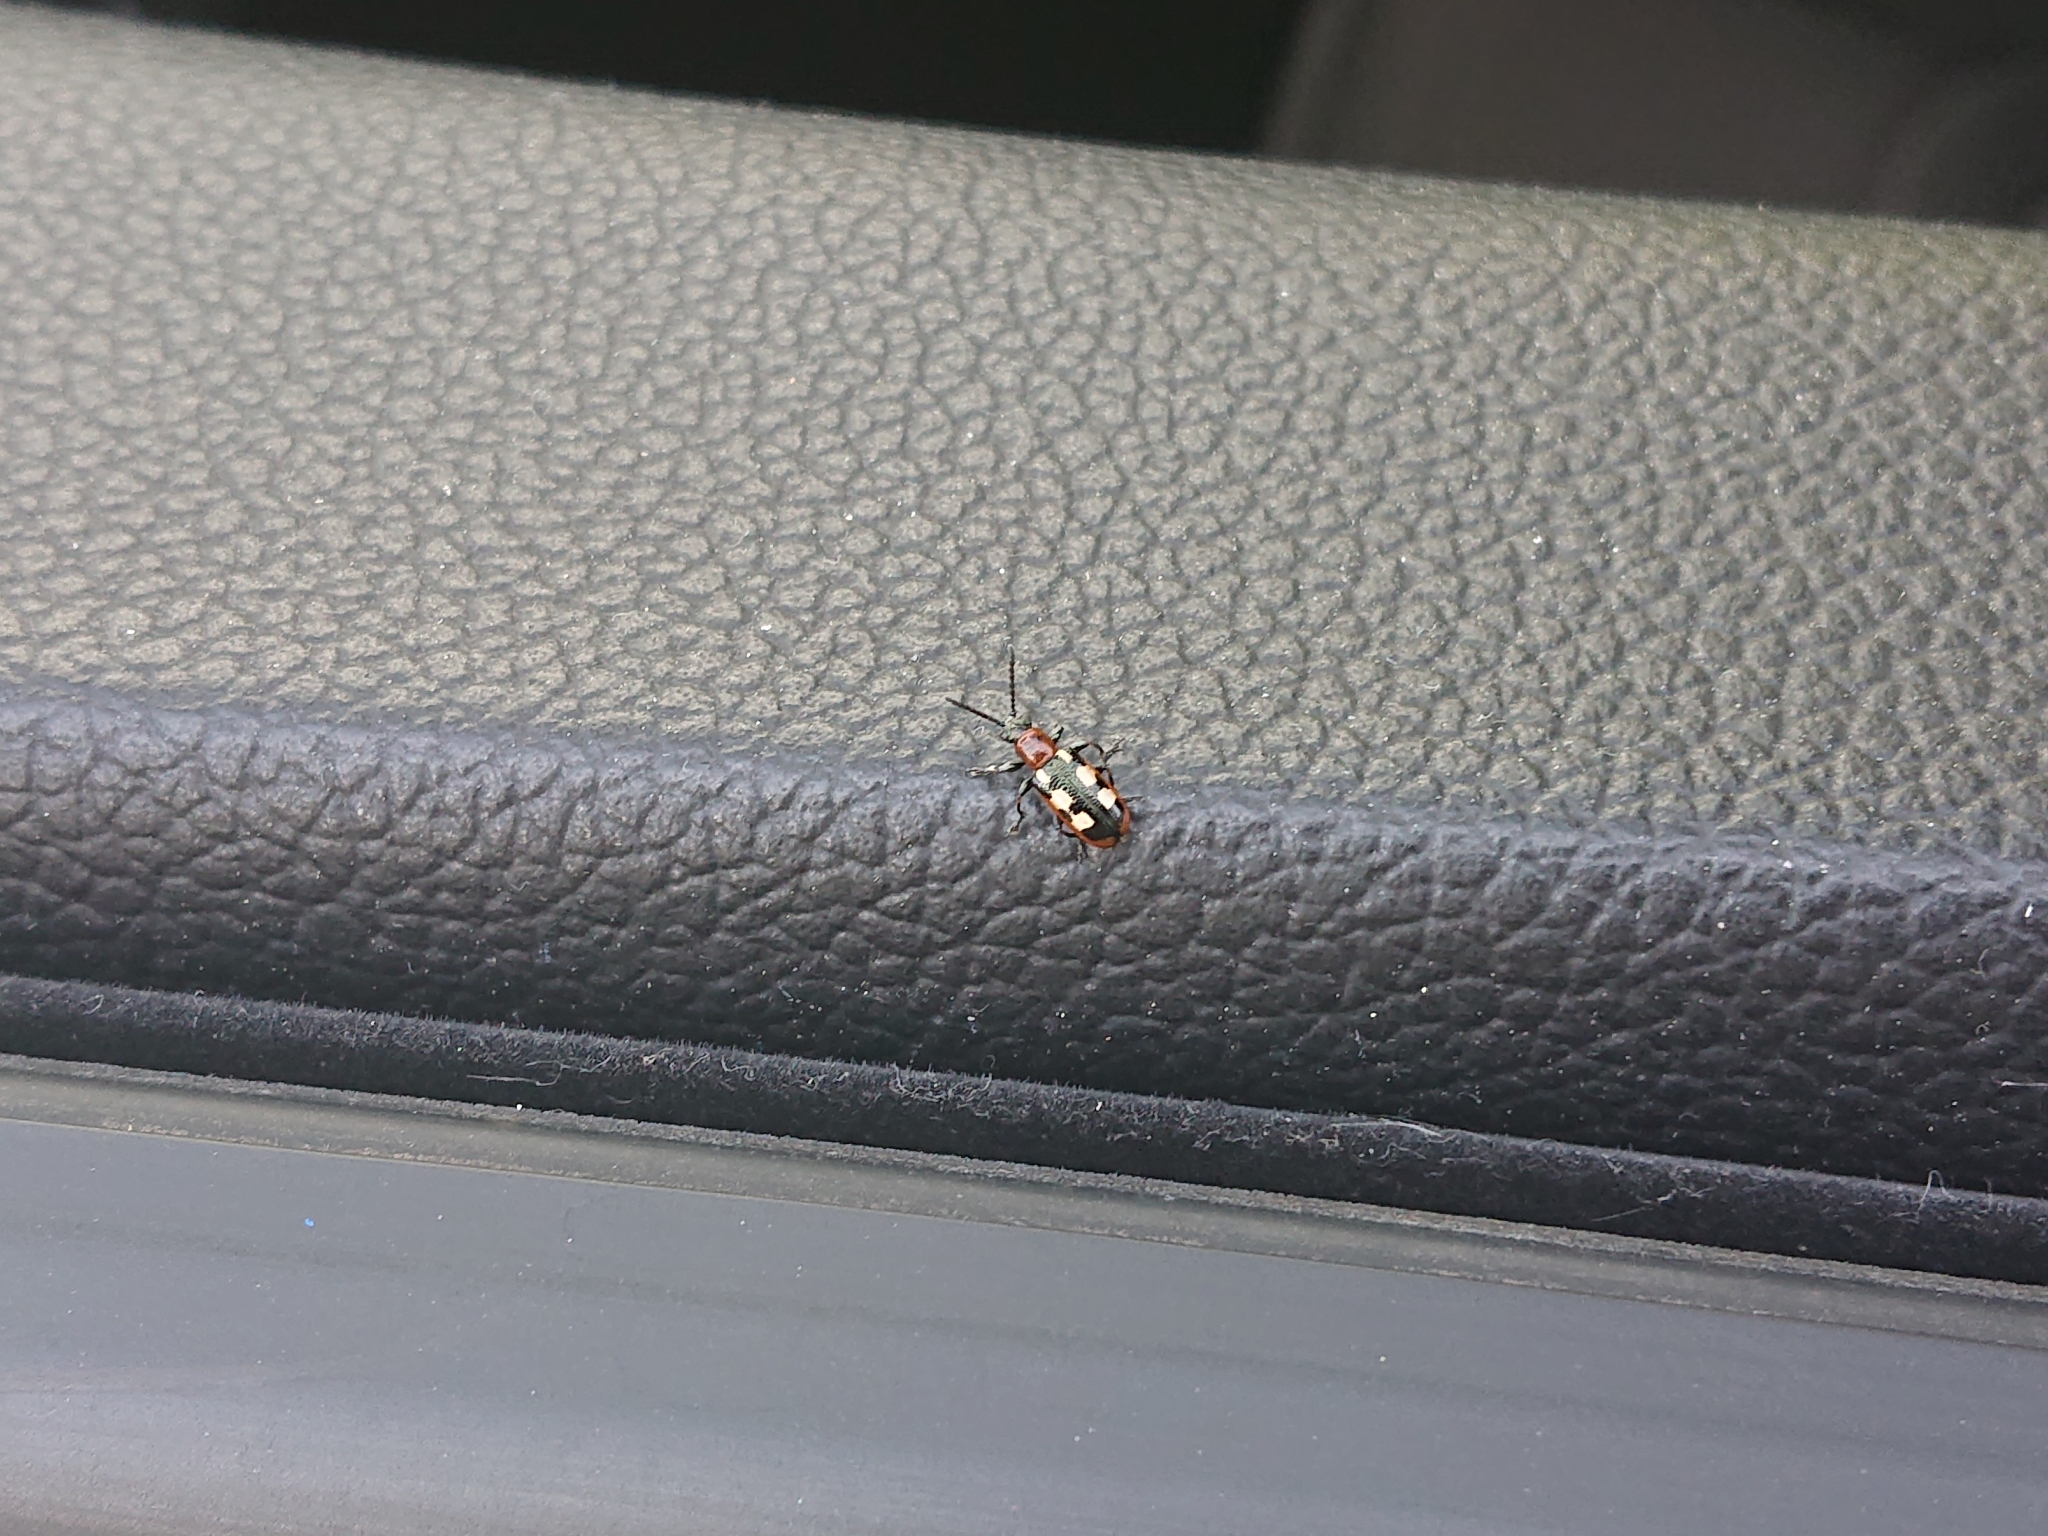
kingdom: Animalia
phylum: Arthropoda
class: Insecta
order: Coleoptera
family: Chrysomelidae
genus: Crioceris
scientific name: Crioceris asparagi
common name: Asparagus beetle
